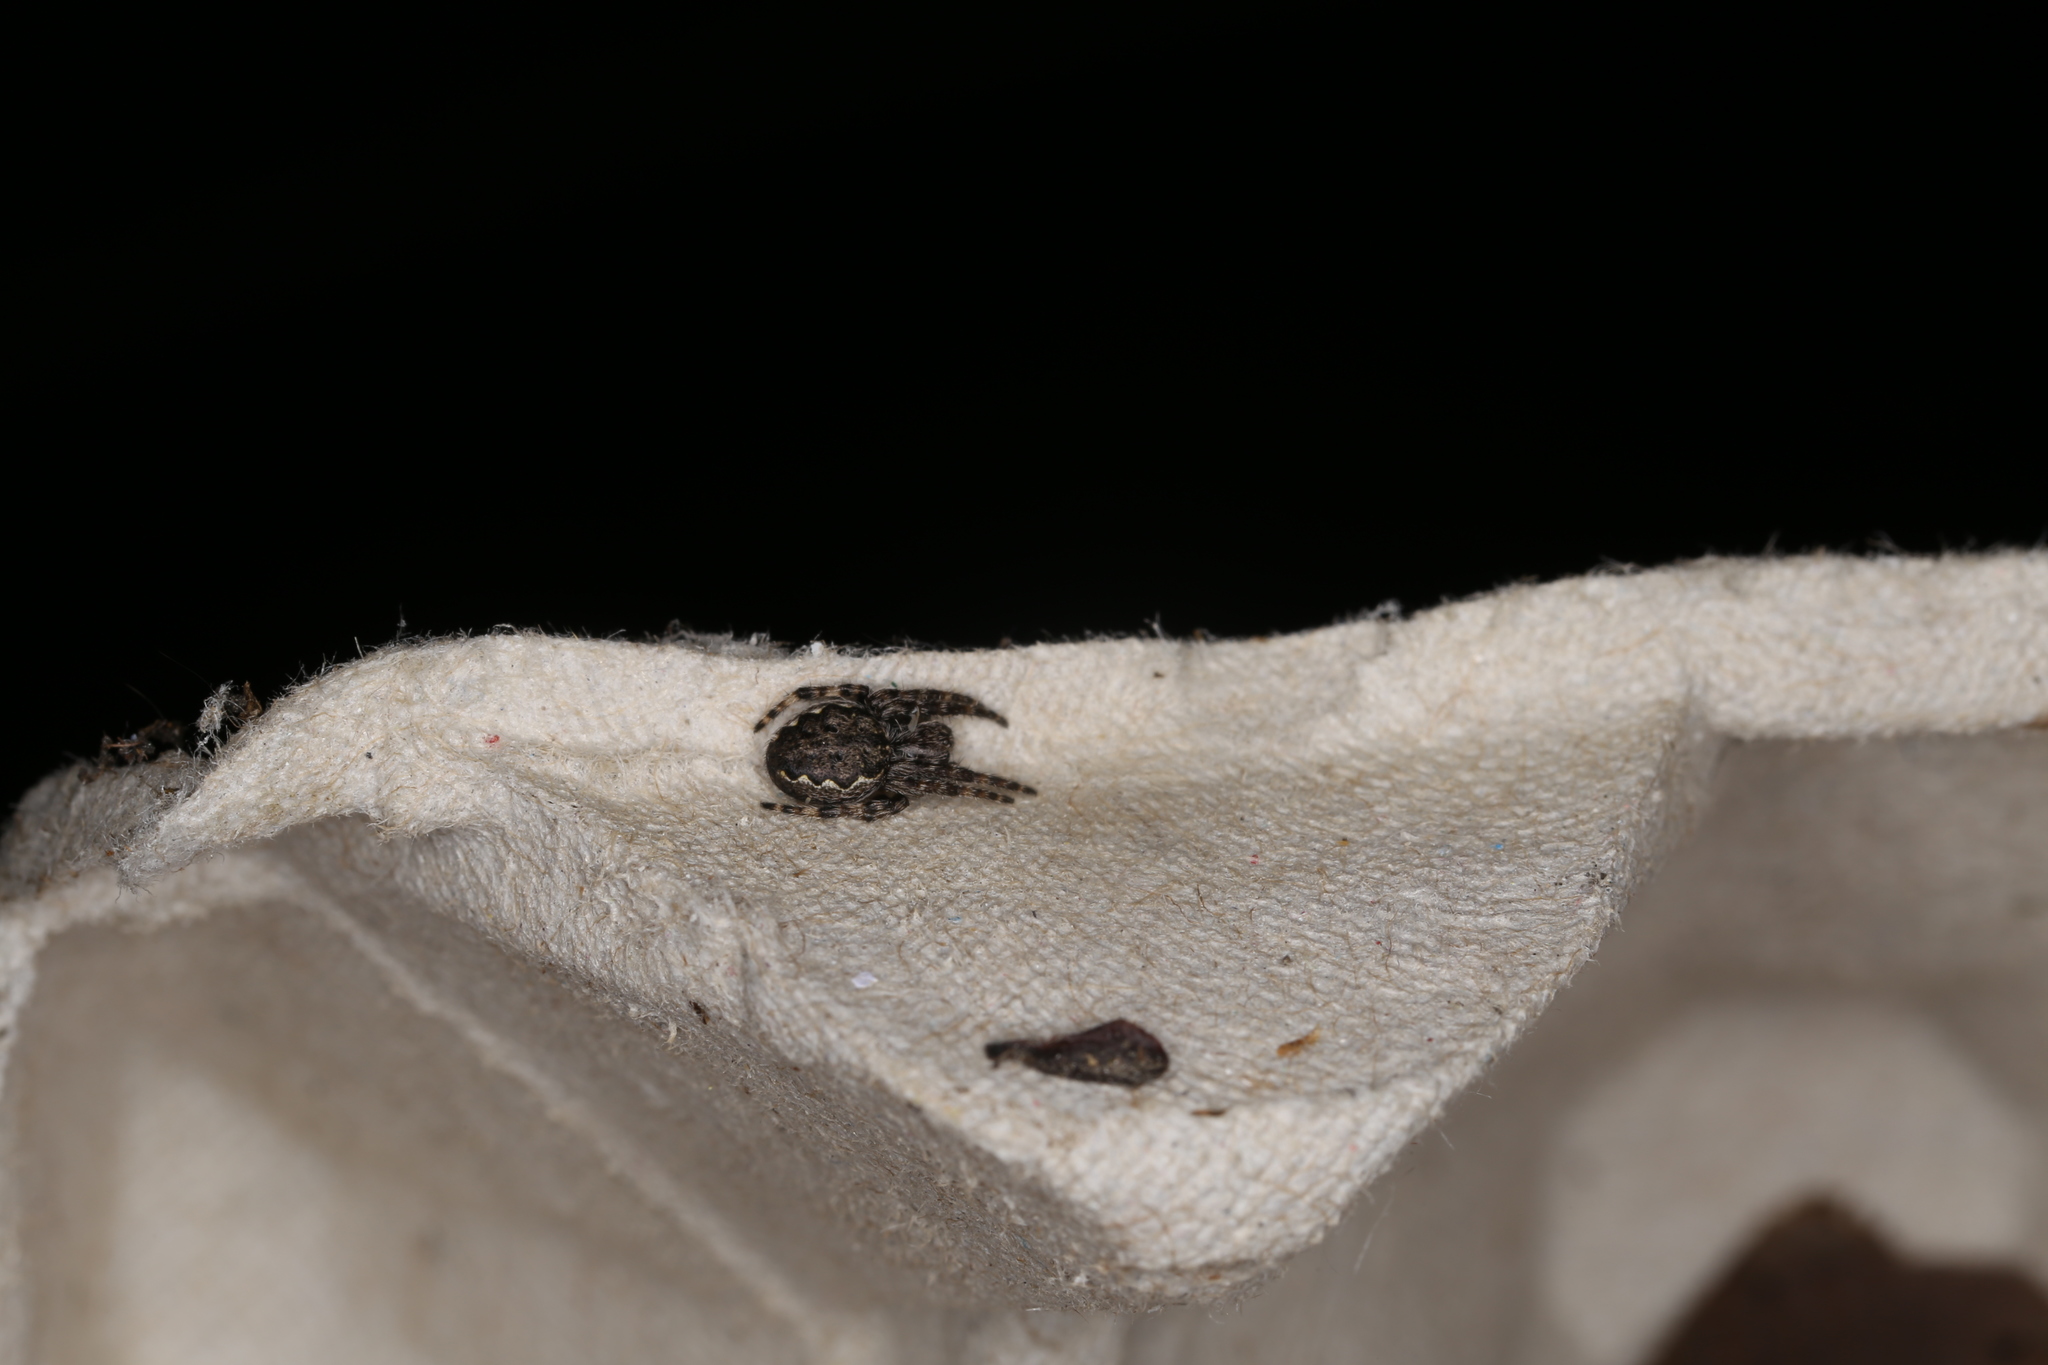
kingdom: Animalia
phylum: Arthropoda
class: Arachnida
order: Araneae
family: Araneidae
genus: Nuctenea
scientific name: Nuctenea umbratica
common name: Toad spider
